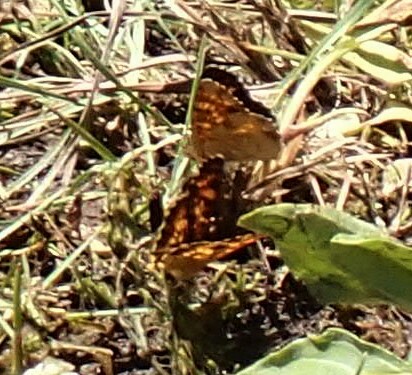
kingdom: Animalia
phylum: Arthropoda
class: Insecta
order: Lepidoptera
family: Nymphalidae
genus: Phyciodes
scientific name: Phyciodes tharos
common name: Pearl crescent
